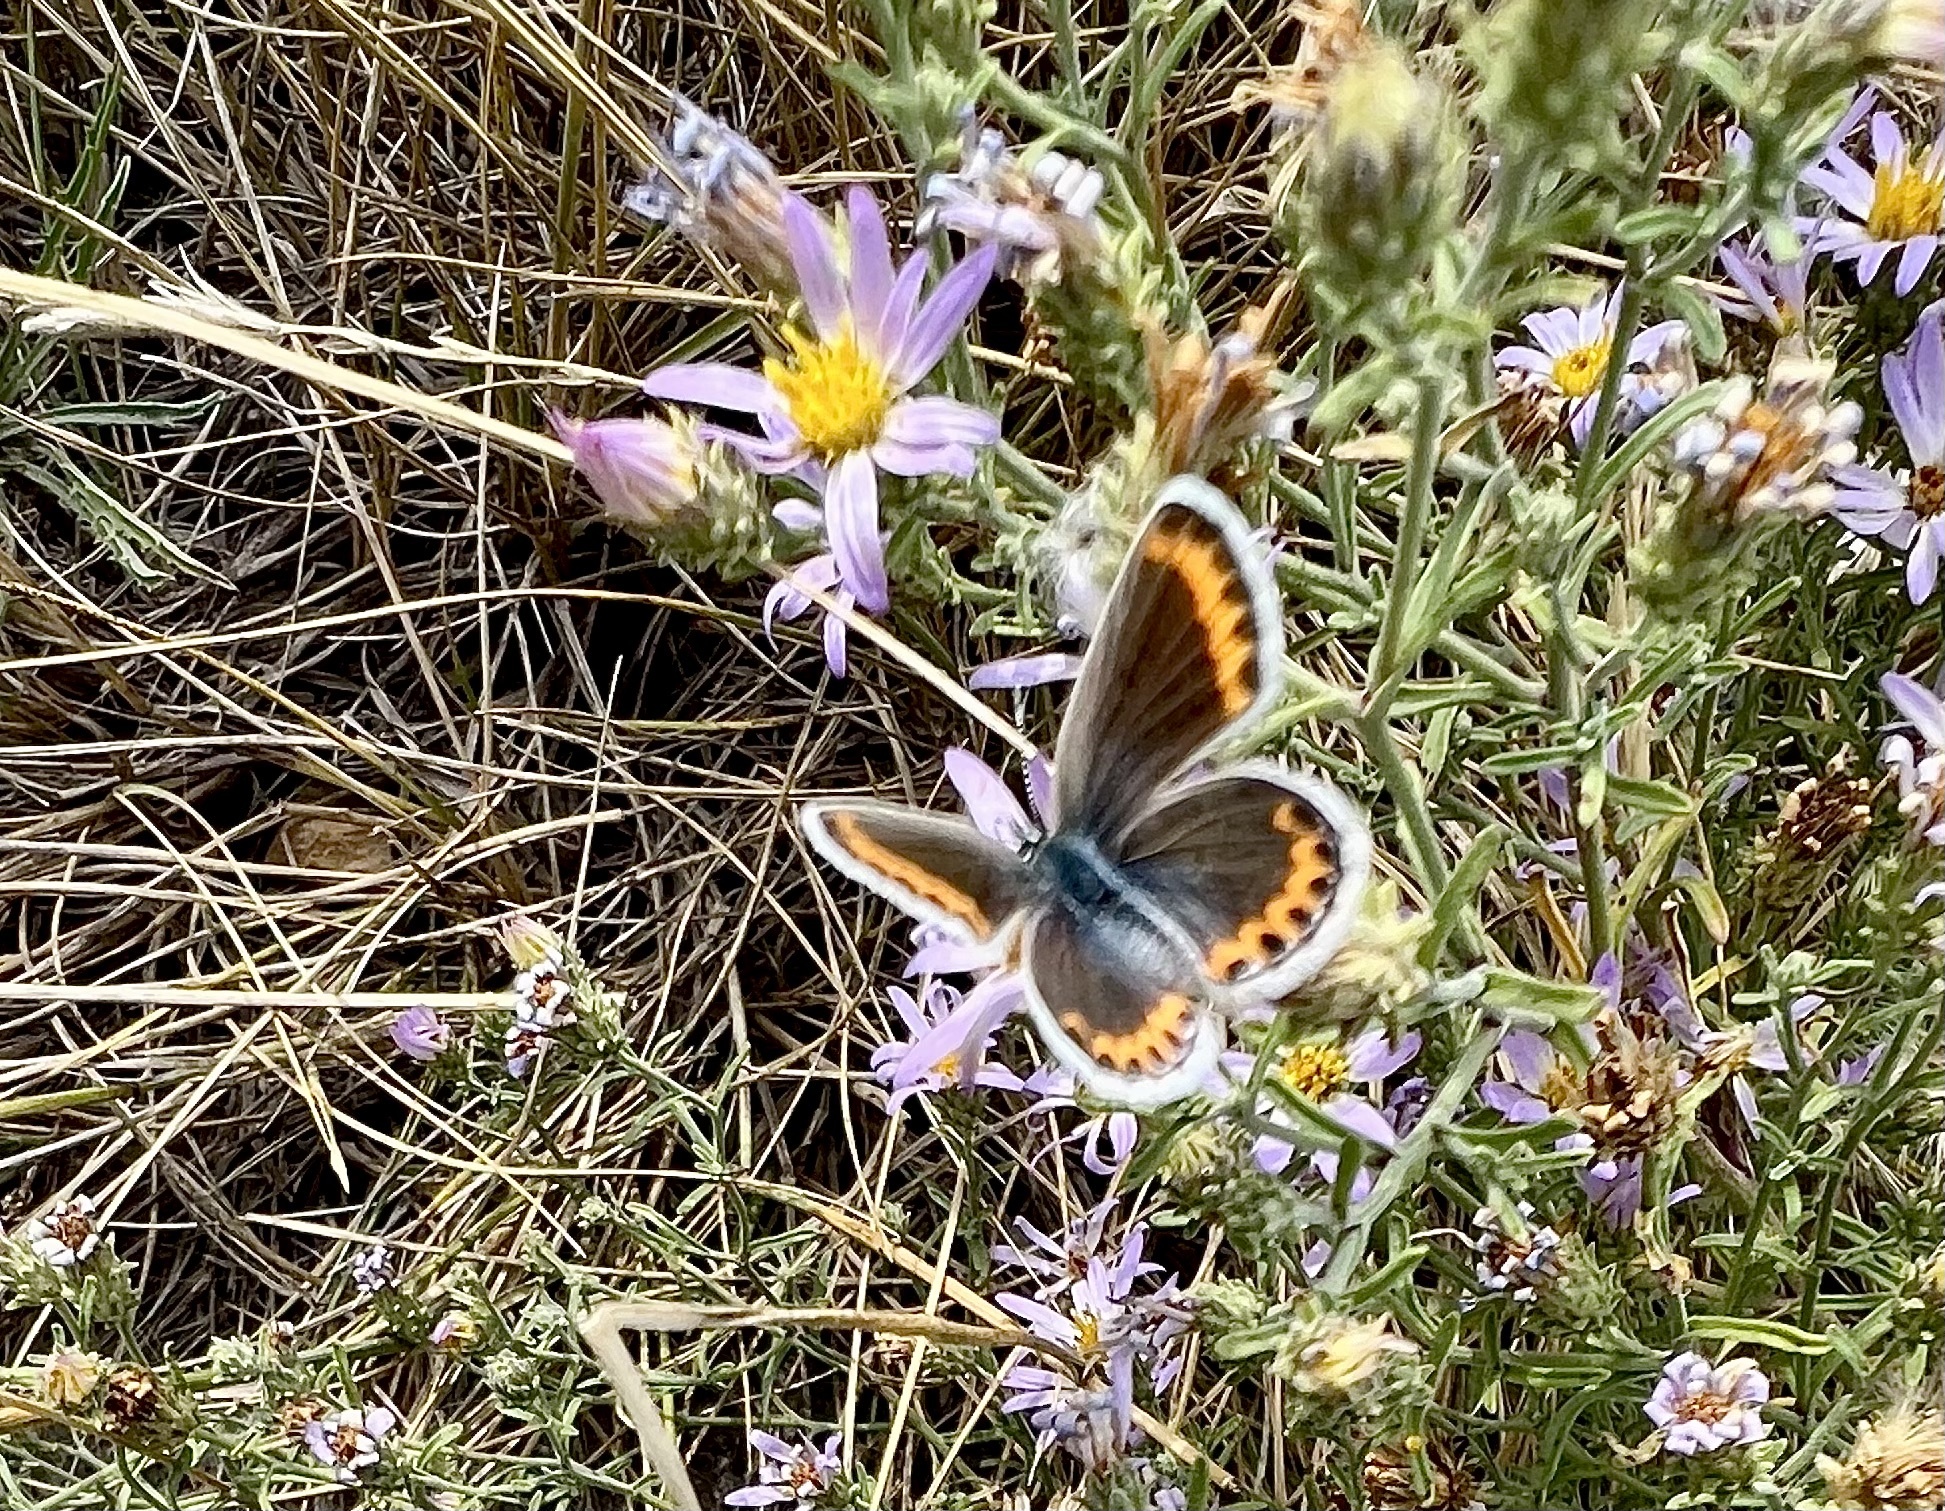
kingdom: Animalia
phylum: Arthropoda
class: Insecta
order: Lepidoptera
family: Lycaenidae
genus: Lycaeides
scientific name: Lycaeides melissa
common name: Melissa blue
